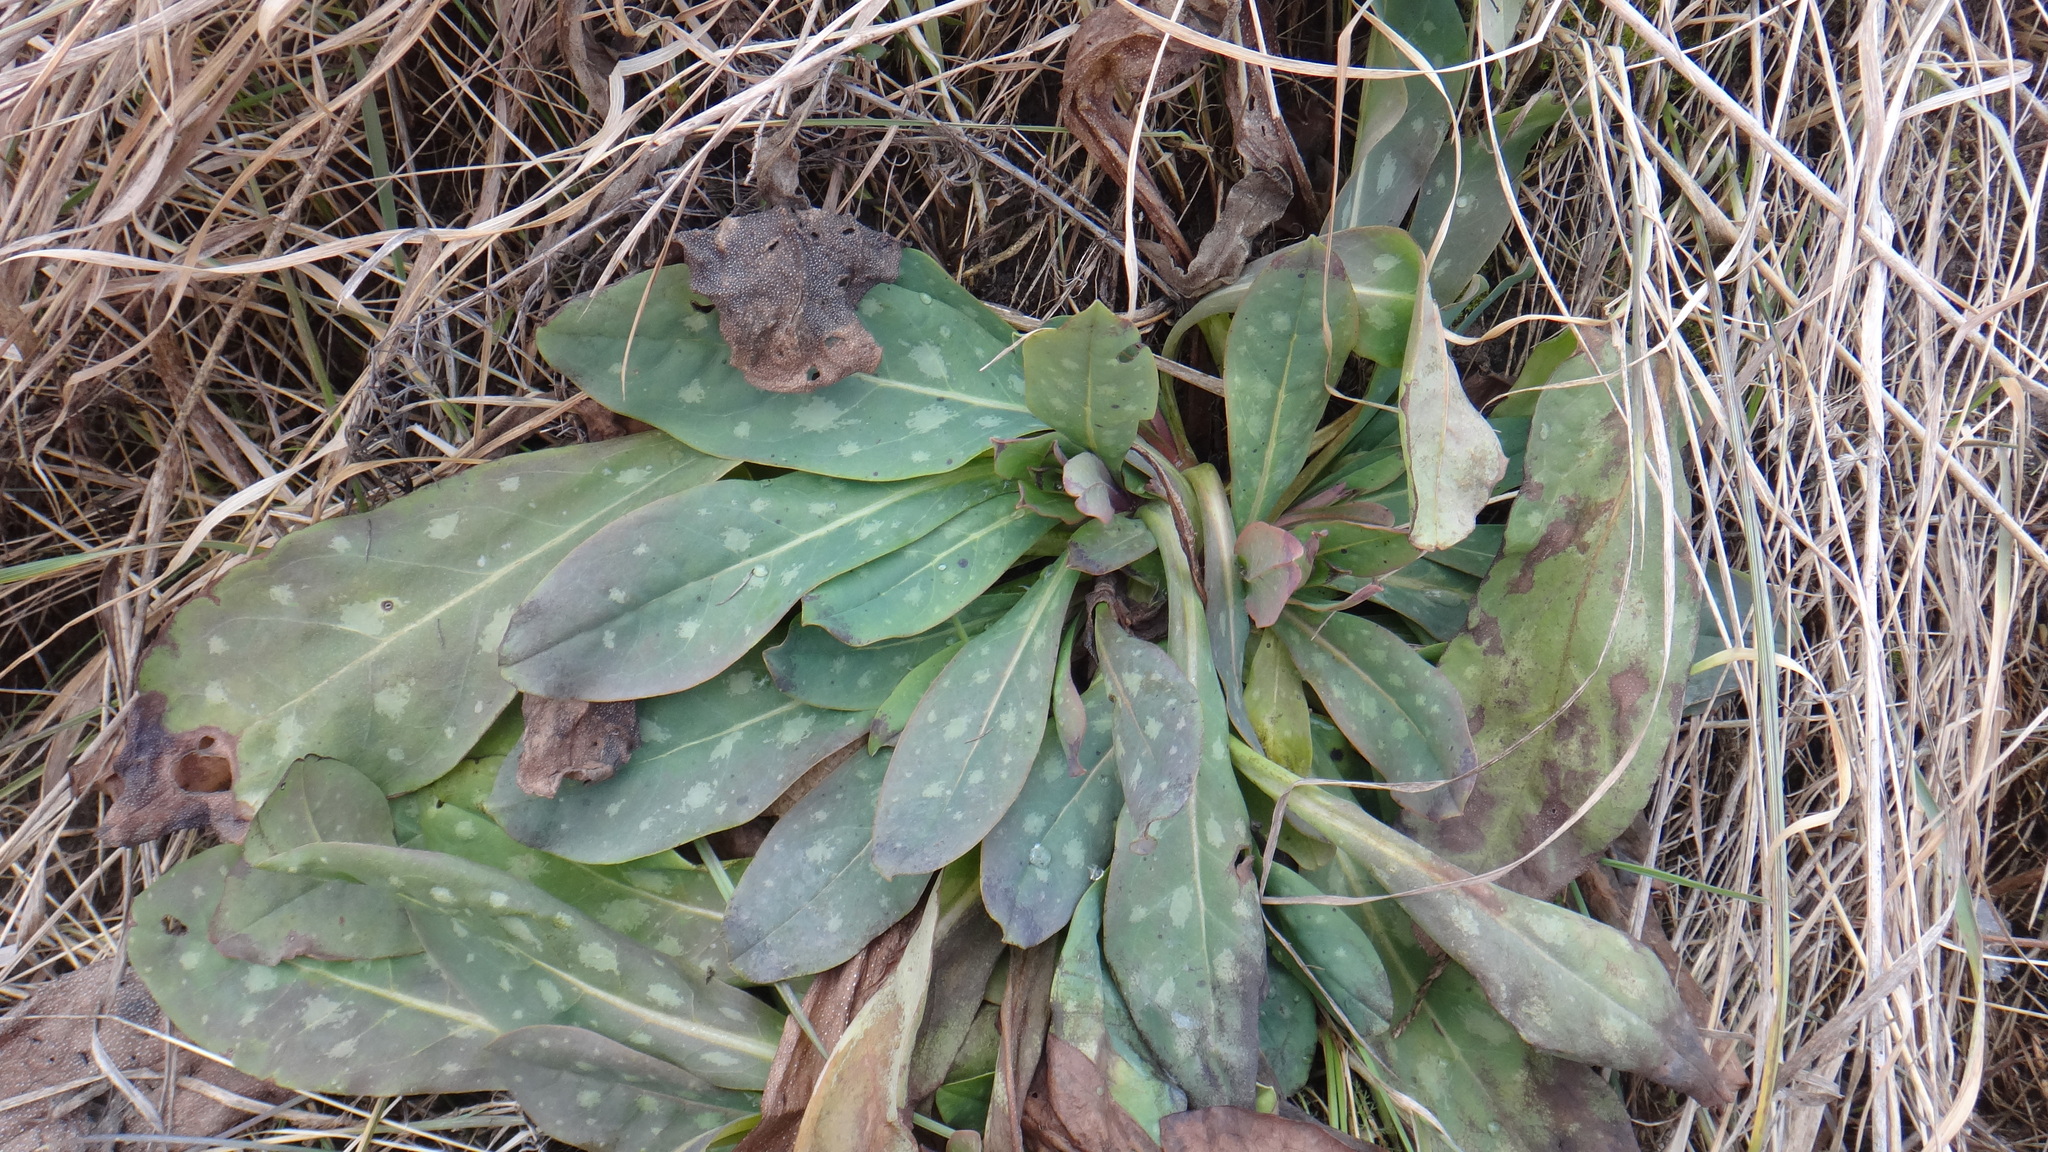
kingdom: Plantae
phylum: Tracheophyta
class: Magnoliopsida
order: Boraginales
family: Boraginaceae
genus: Cerinthe
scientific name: Cerinthe minor
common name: Lesser honeywort
